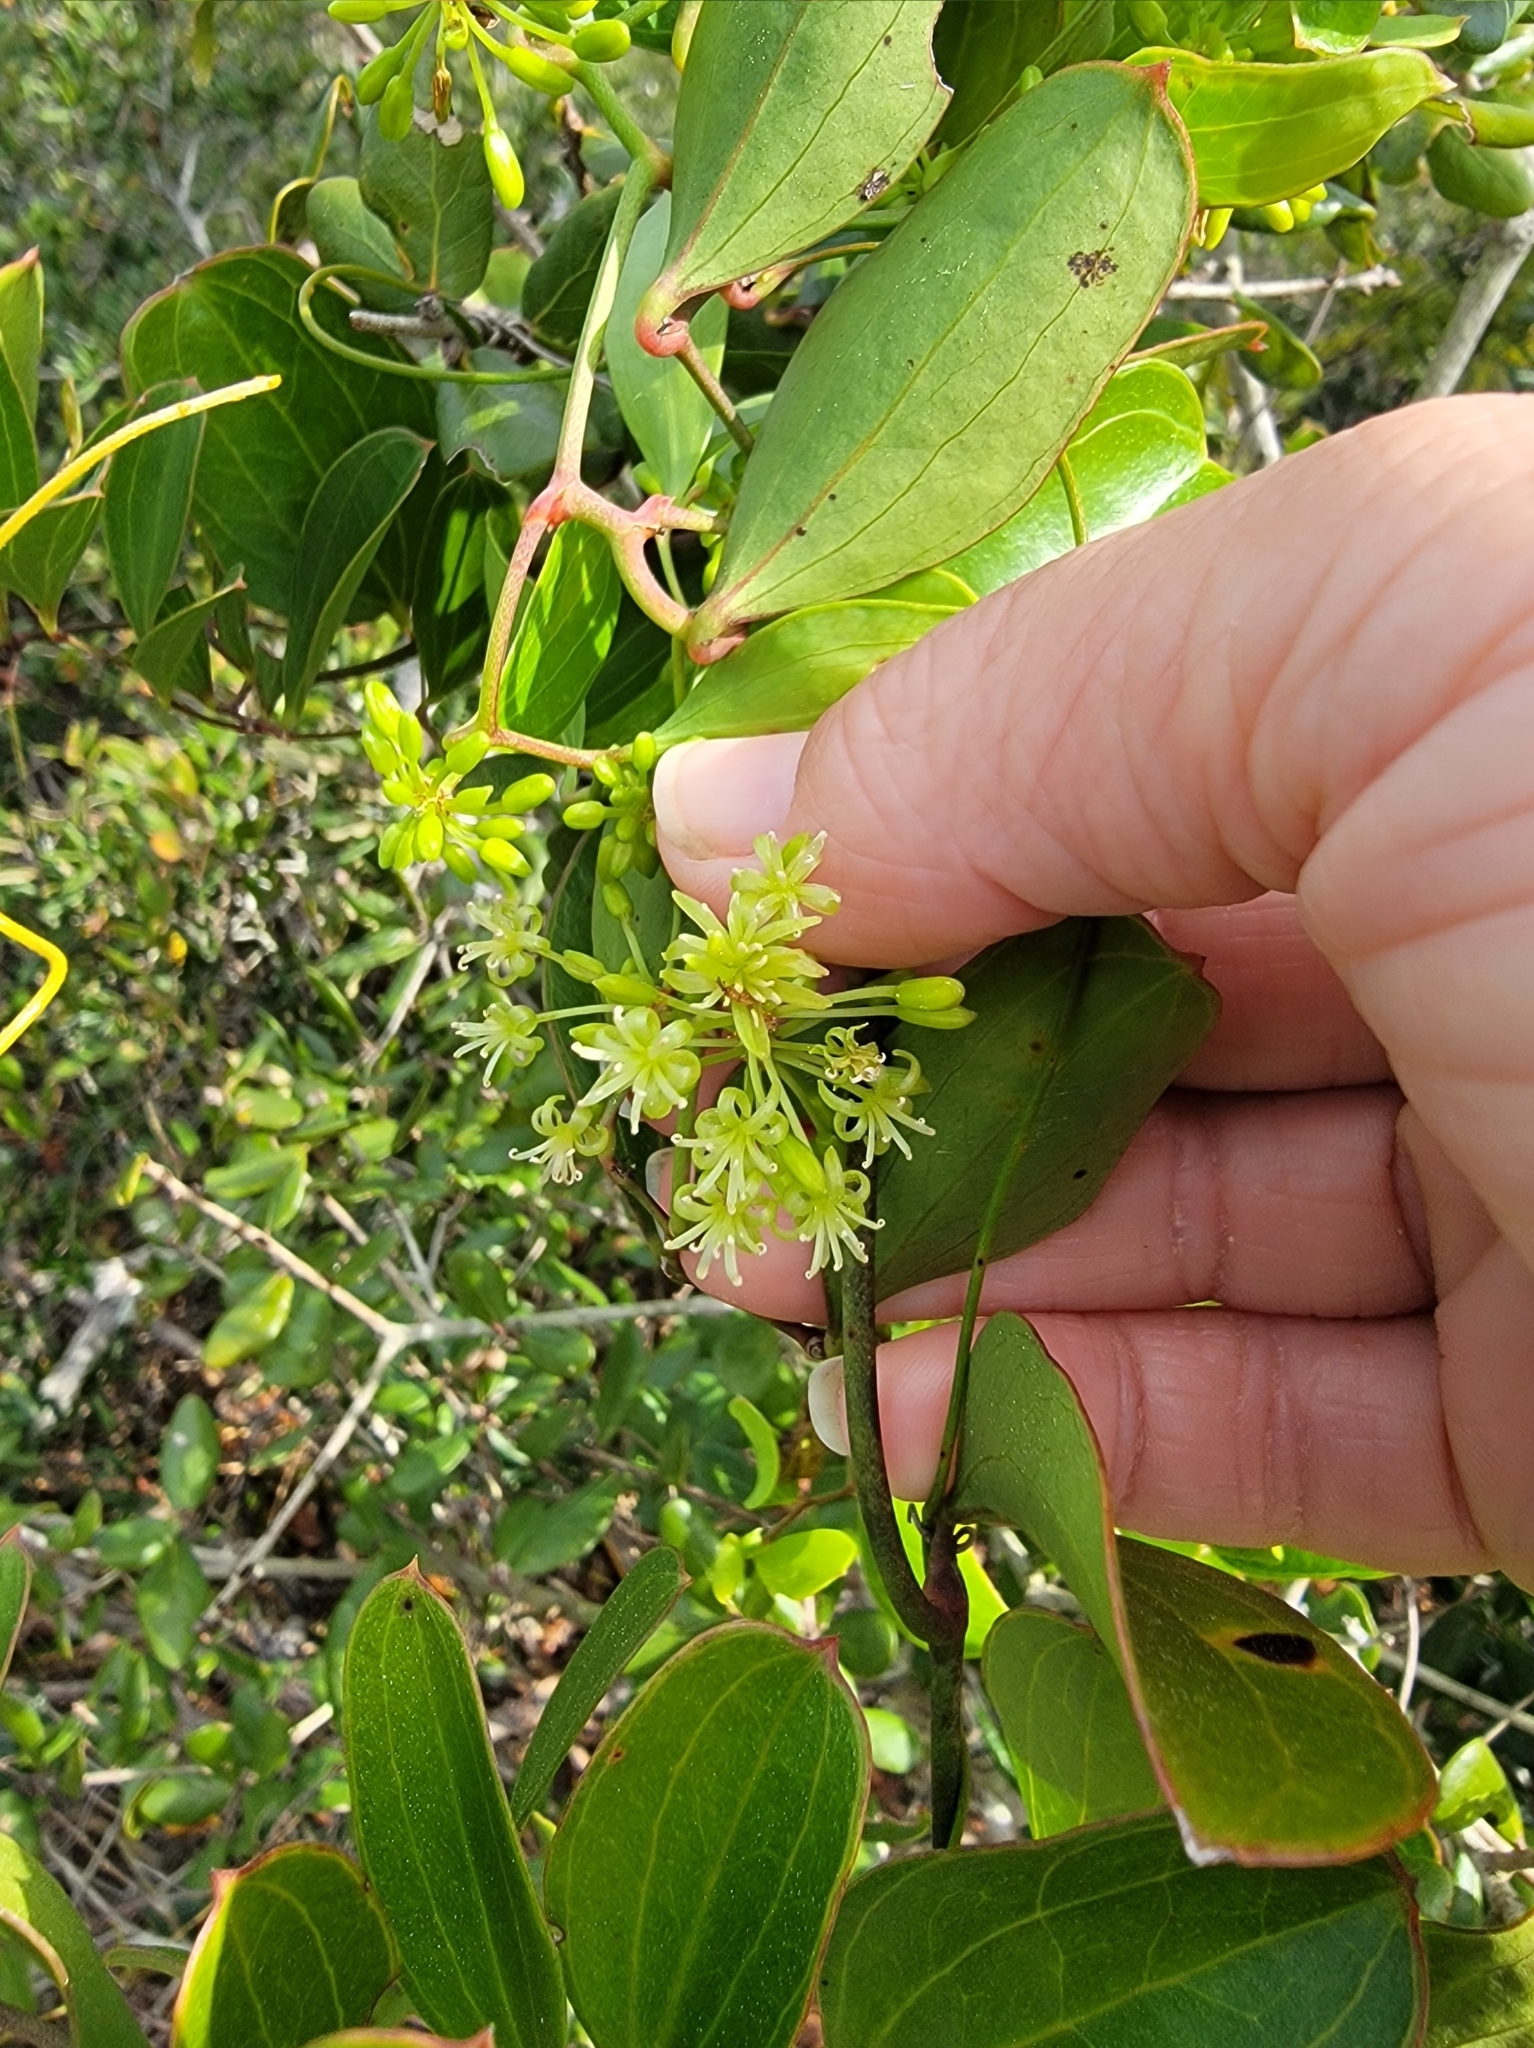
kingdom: Plantae
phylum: Tracheophyta
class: Liliopsida
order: Liliales
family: Smilacaceae
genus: Smilax
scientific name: Smilax auriculata
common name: Wild bamboo
